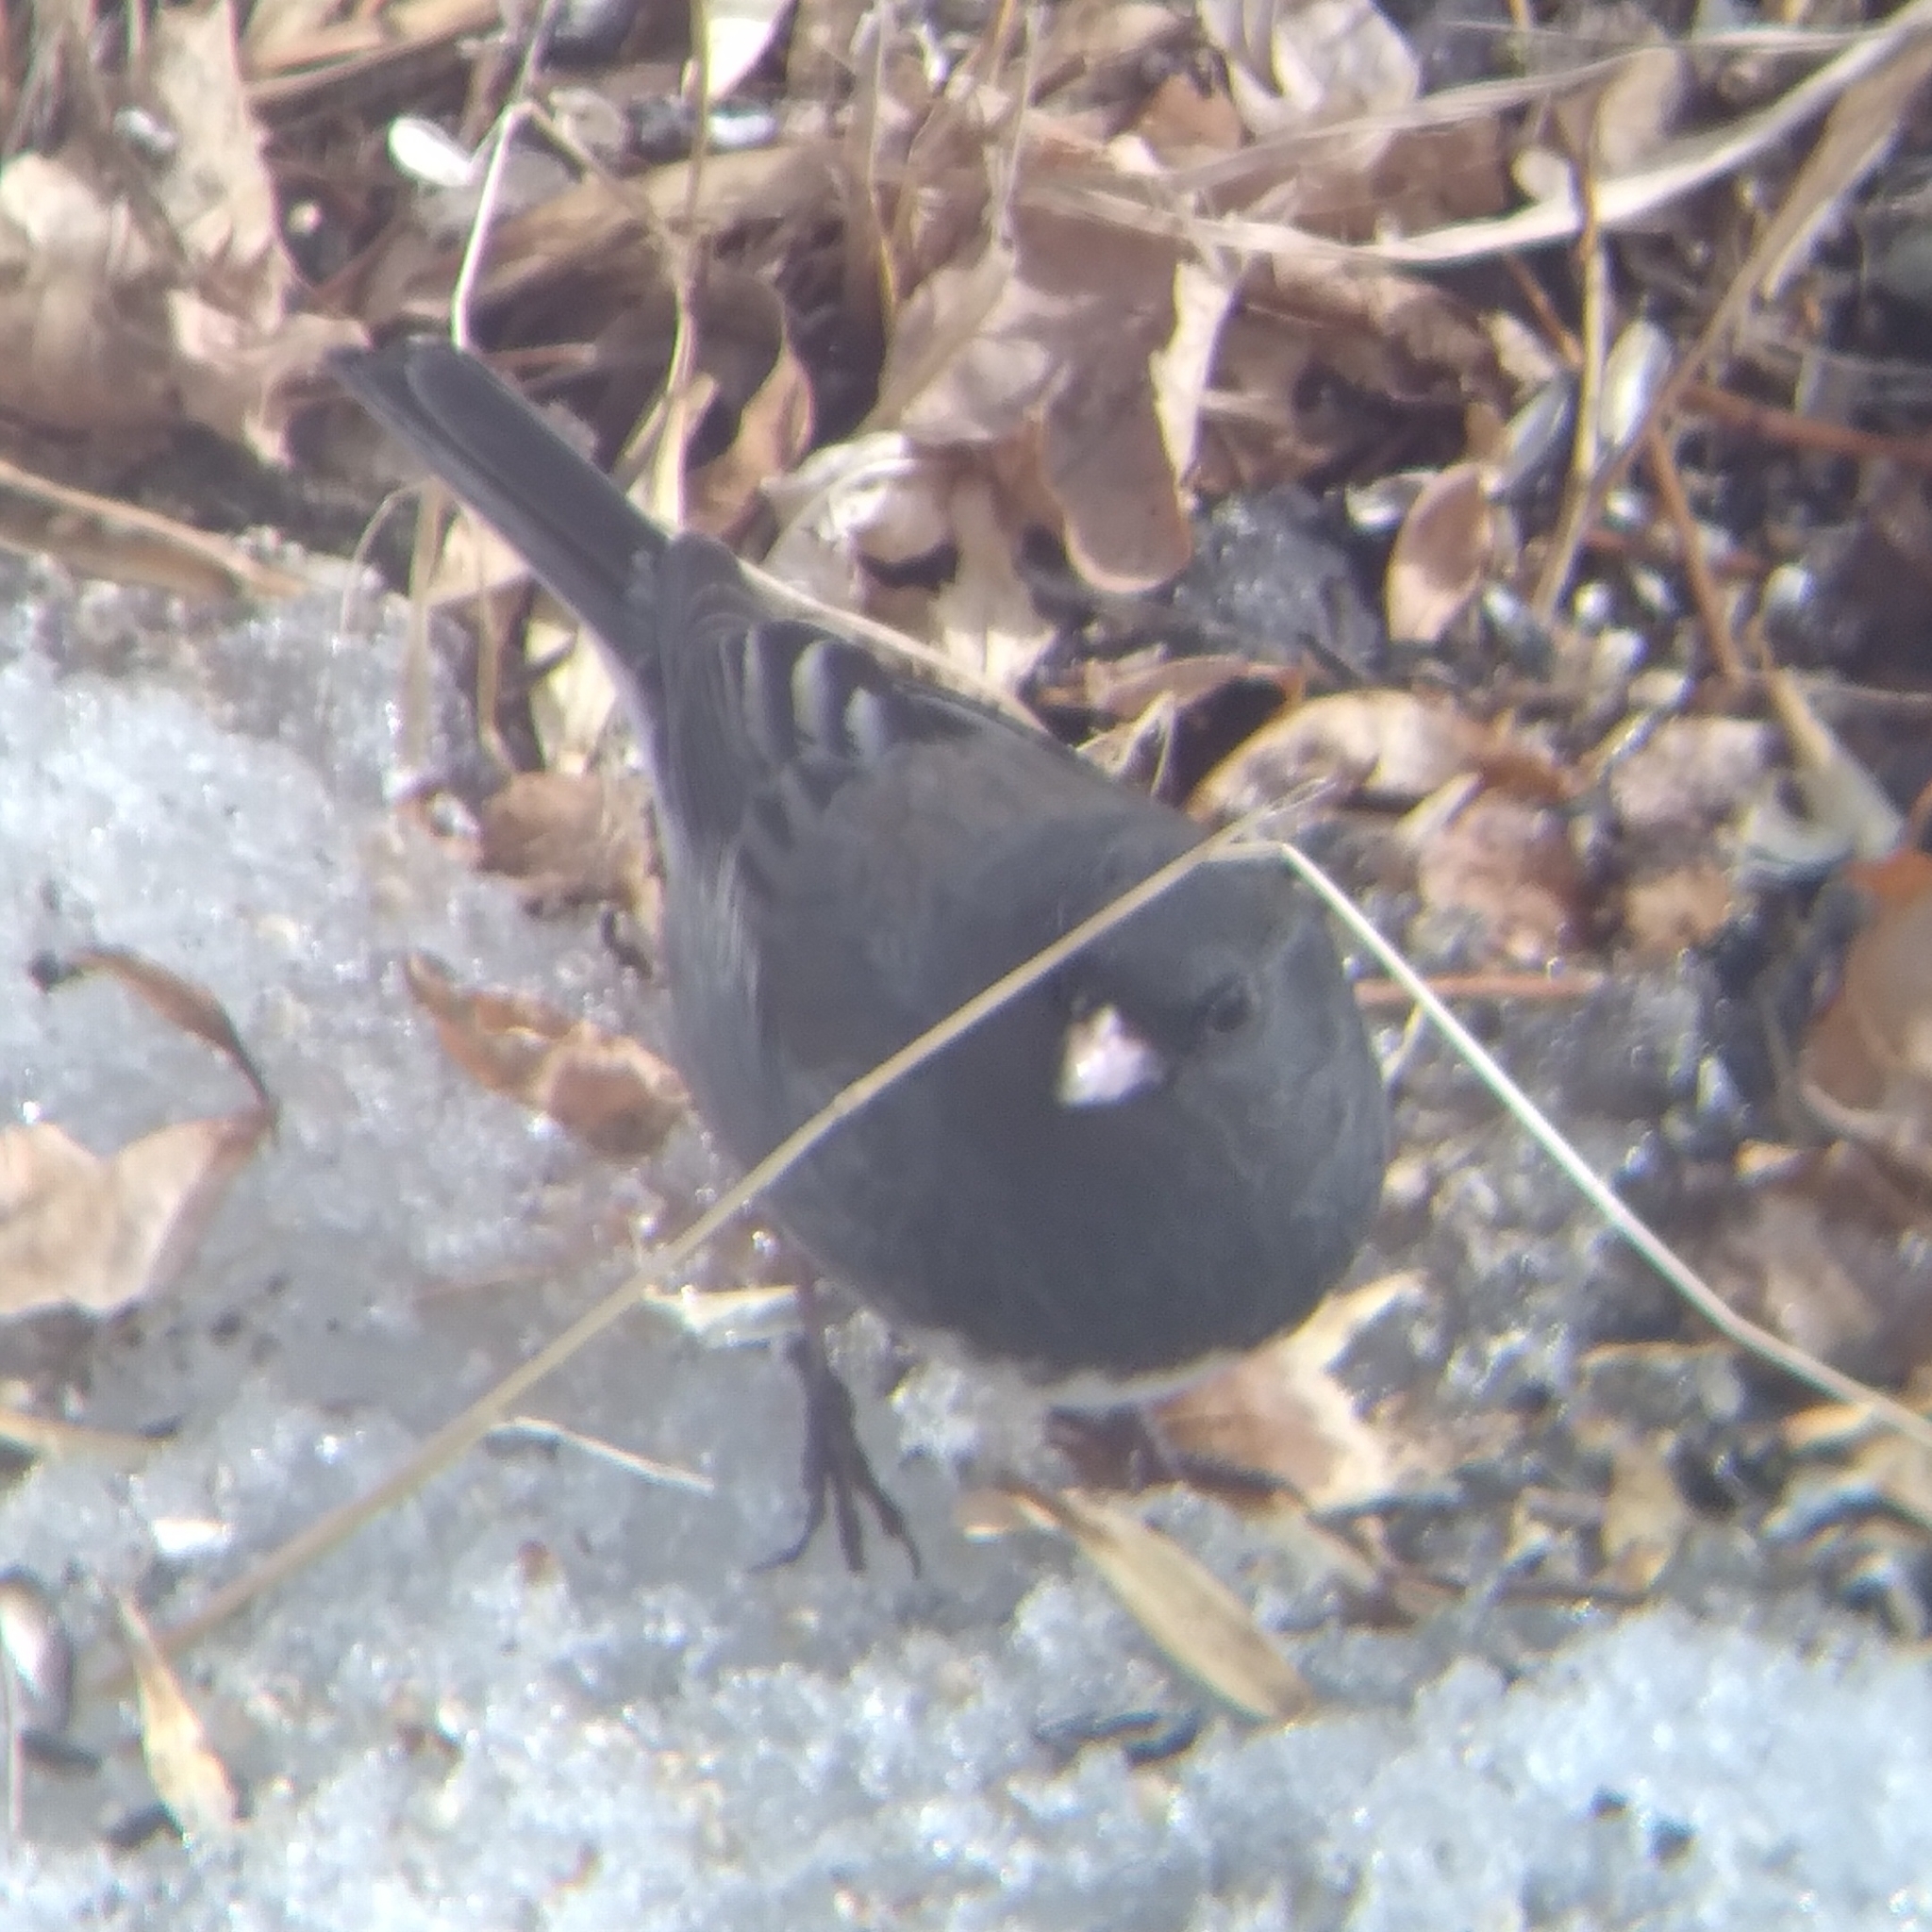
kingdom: Animalia
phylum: Chordata
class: Aves
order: Passeriformes
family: Passerellidae
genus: Junco
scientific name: Junco hyemalis
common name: Dark-eyed junco
